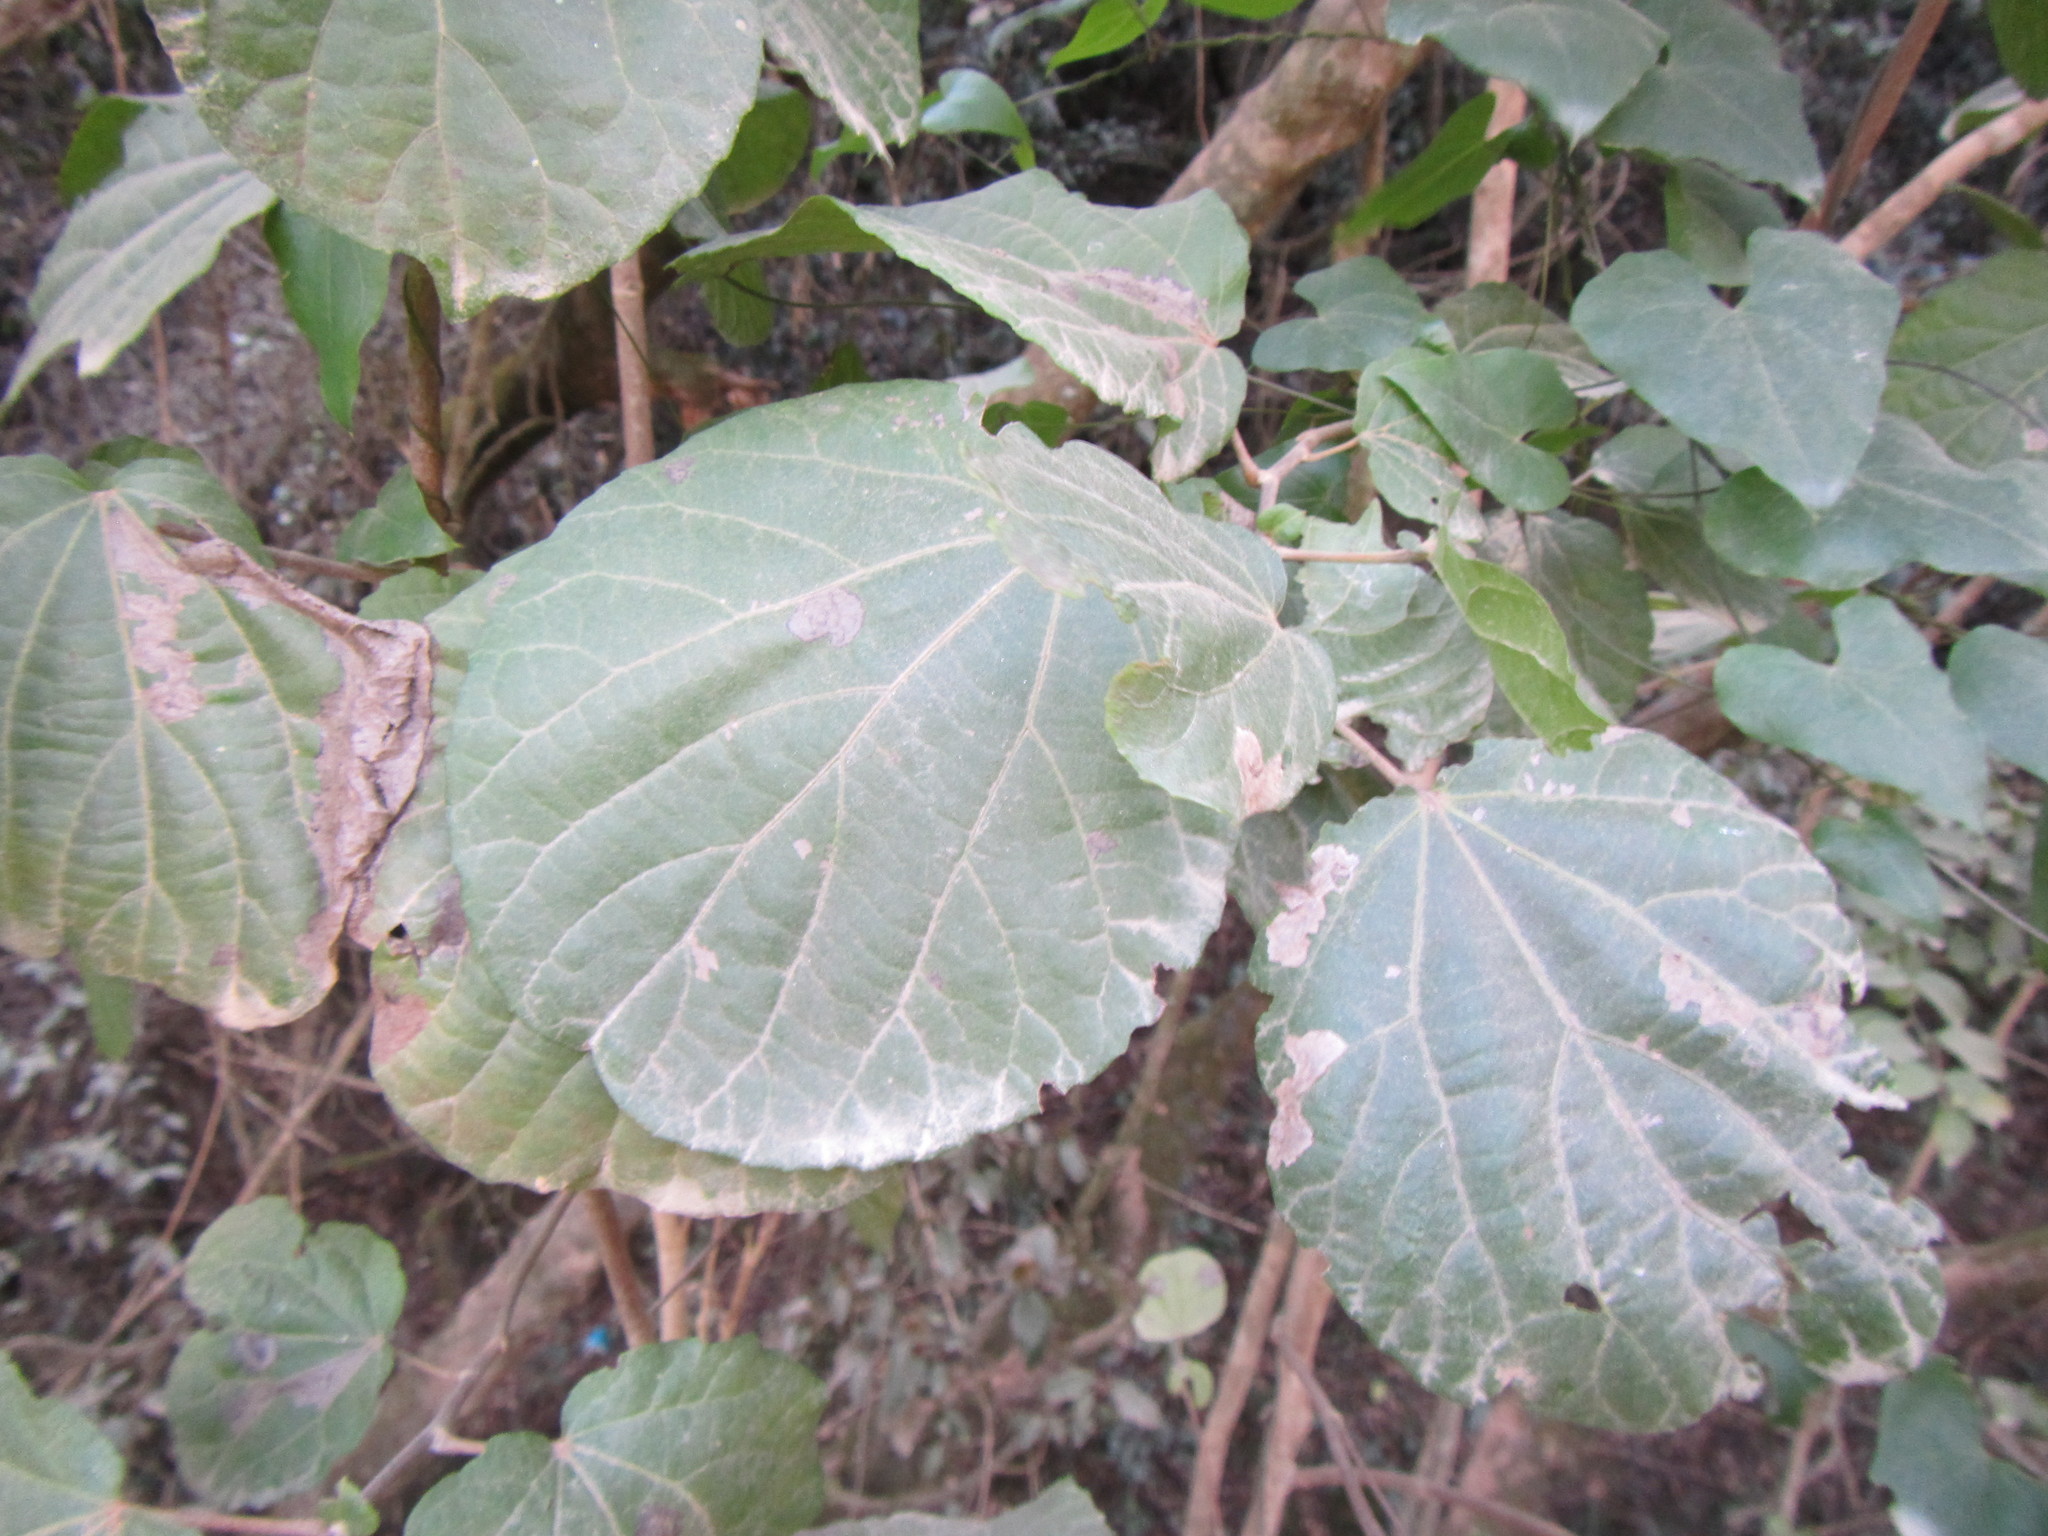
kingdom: Plantae
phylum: Tracheophyta
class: Magnoliopsida
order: Malpighiales
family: Salicaceae
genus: Trimeria
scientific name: Trimeria grandifolia
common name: Wild mulberry
